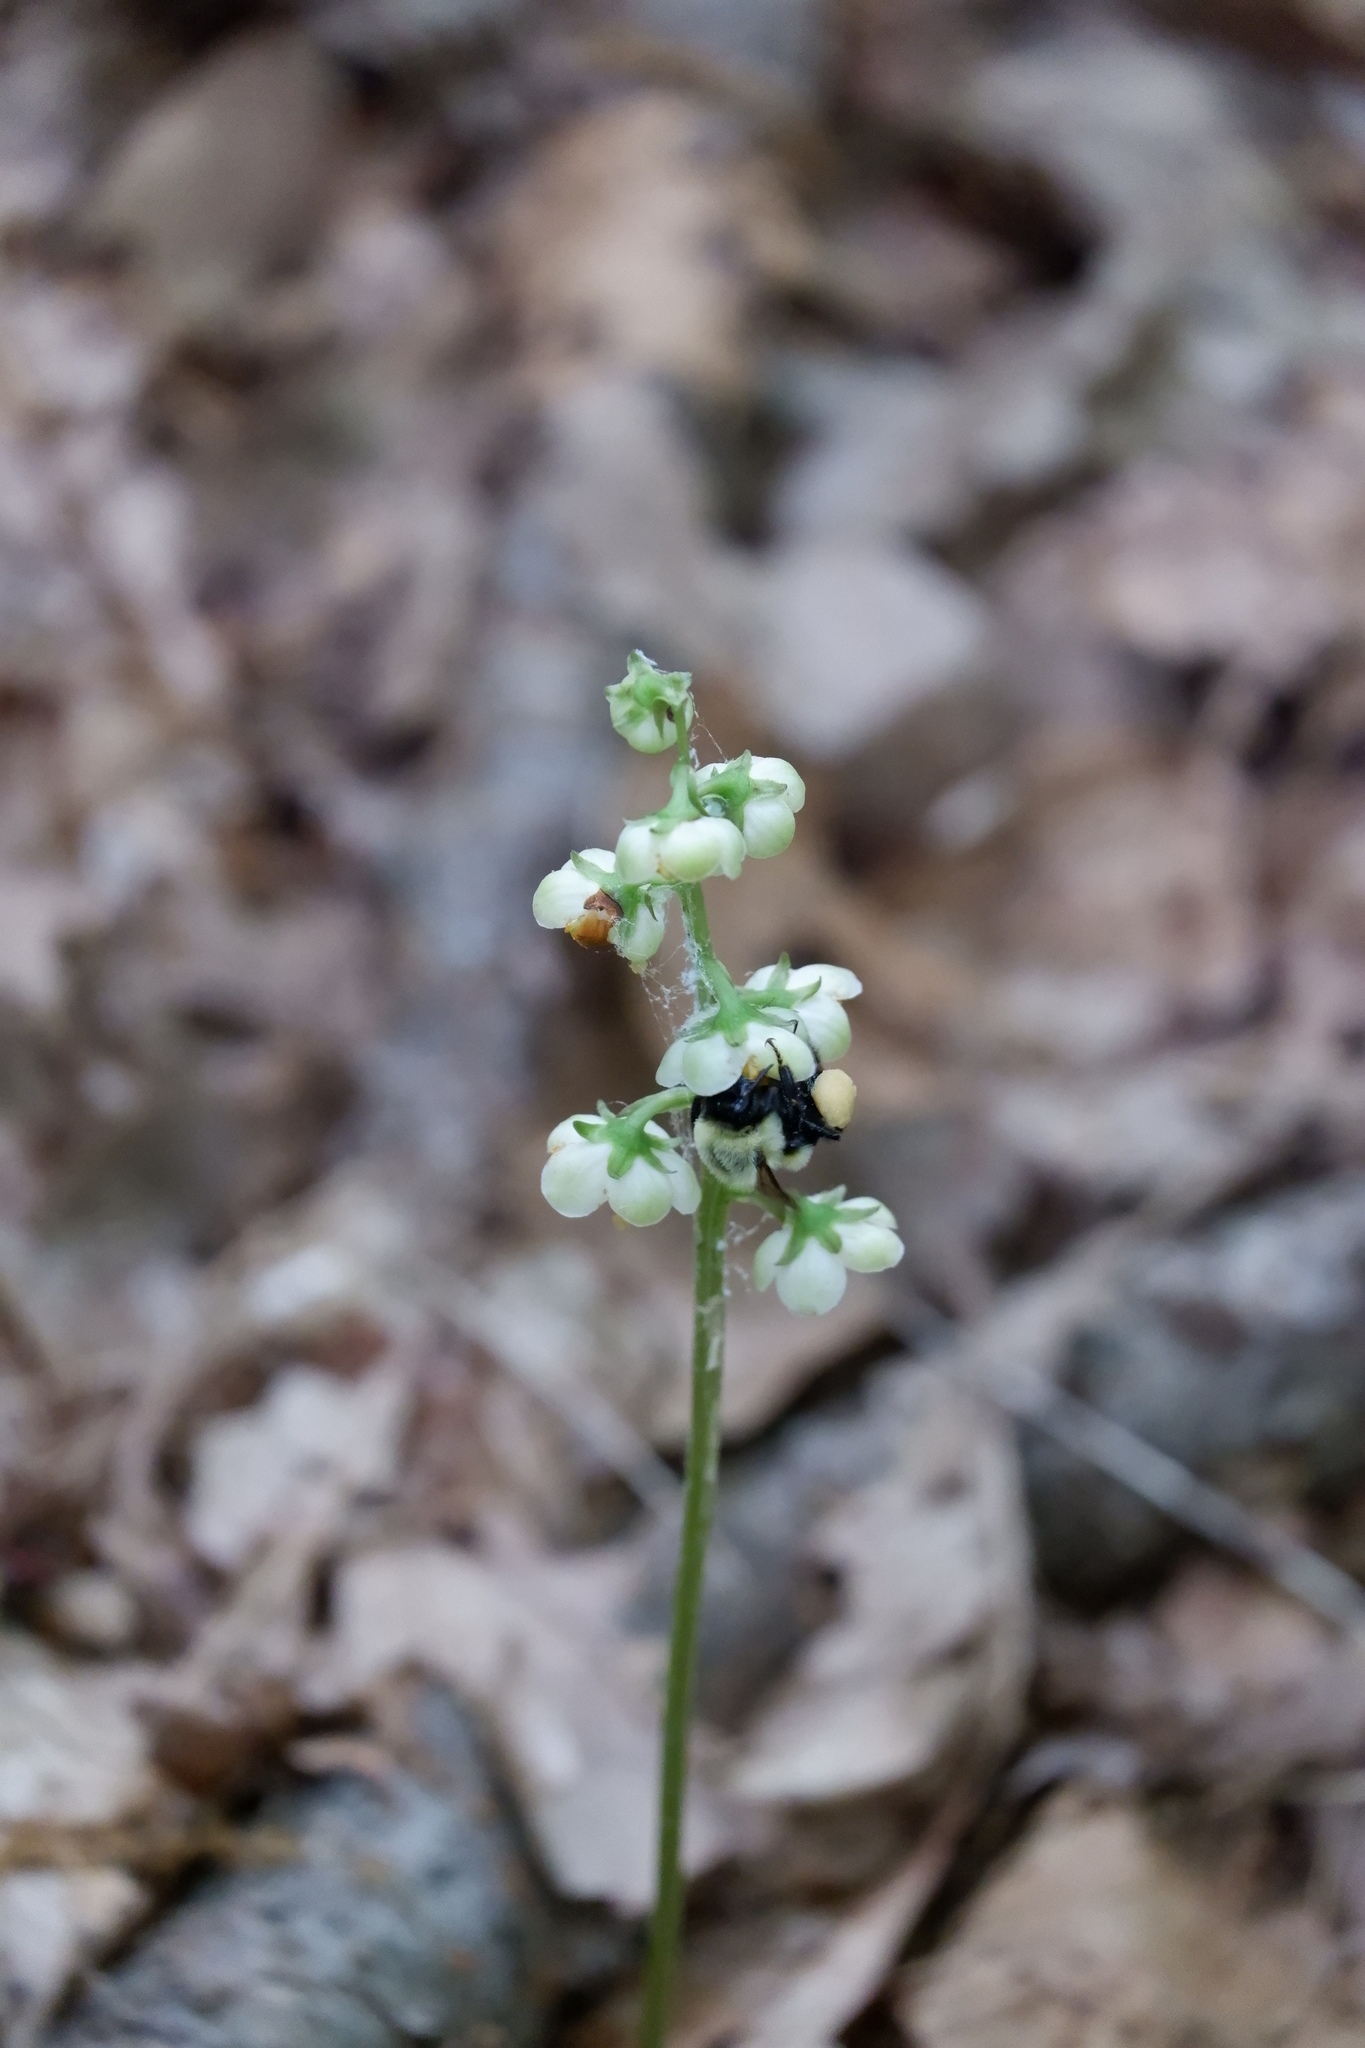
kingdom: Animalia
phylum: Arthropoda
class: Insecta
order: Hymenoptera
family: Apidae
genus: Bombus
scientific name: Bombus impatiens
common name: Common eastern bumble bee
